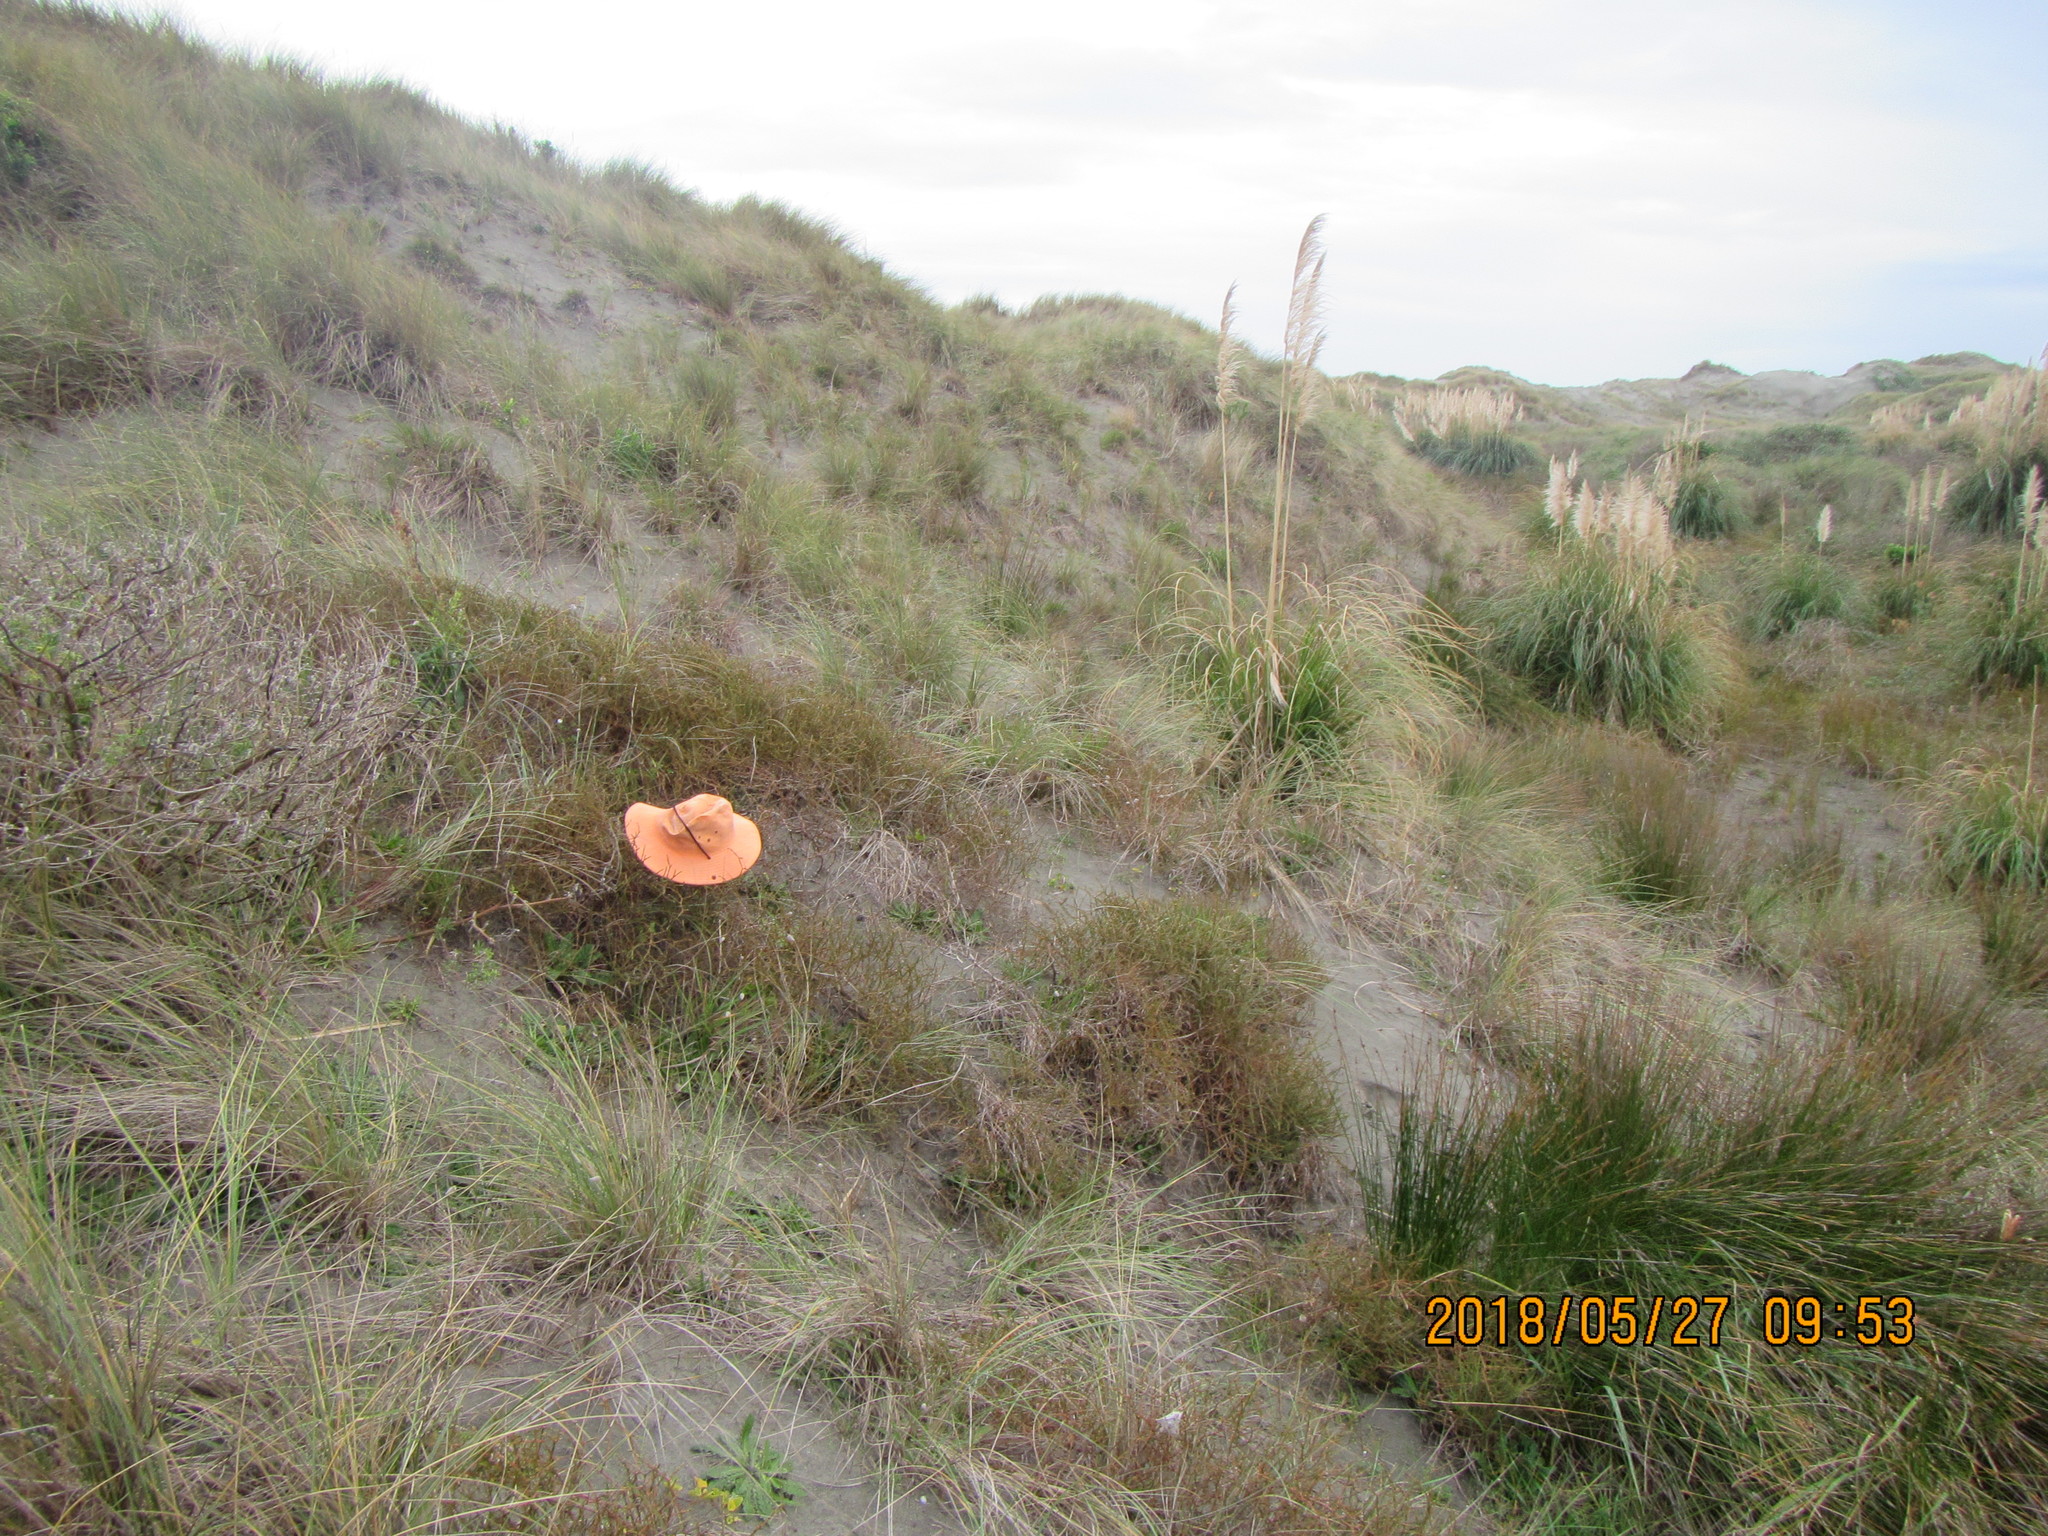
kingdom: Plantae
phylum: Tracheophyta
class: Magnoliopsida
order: Gentianales
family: Rubiaceae
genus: Coprosma
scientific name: Coprosma acerosa
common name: Sand coprosma
